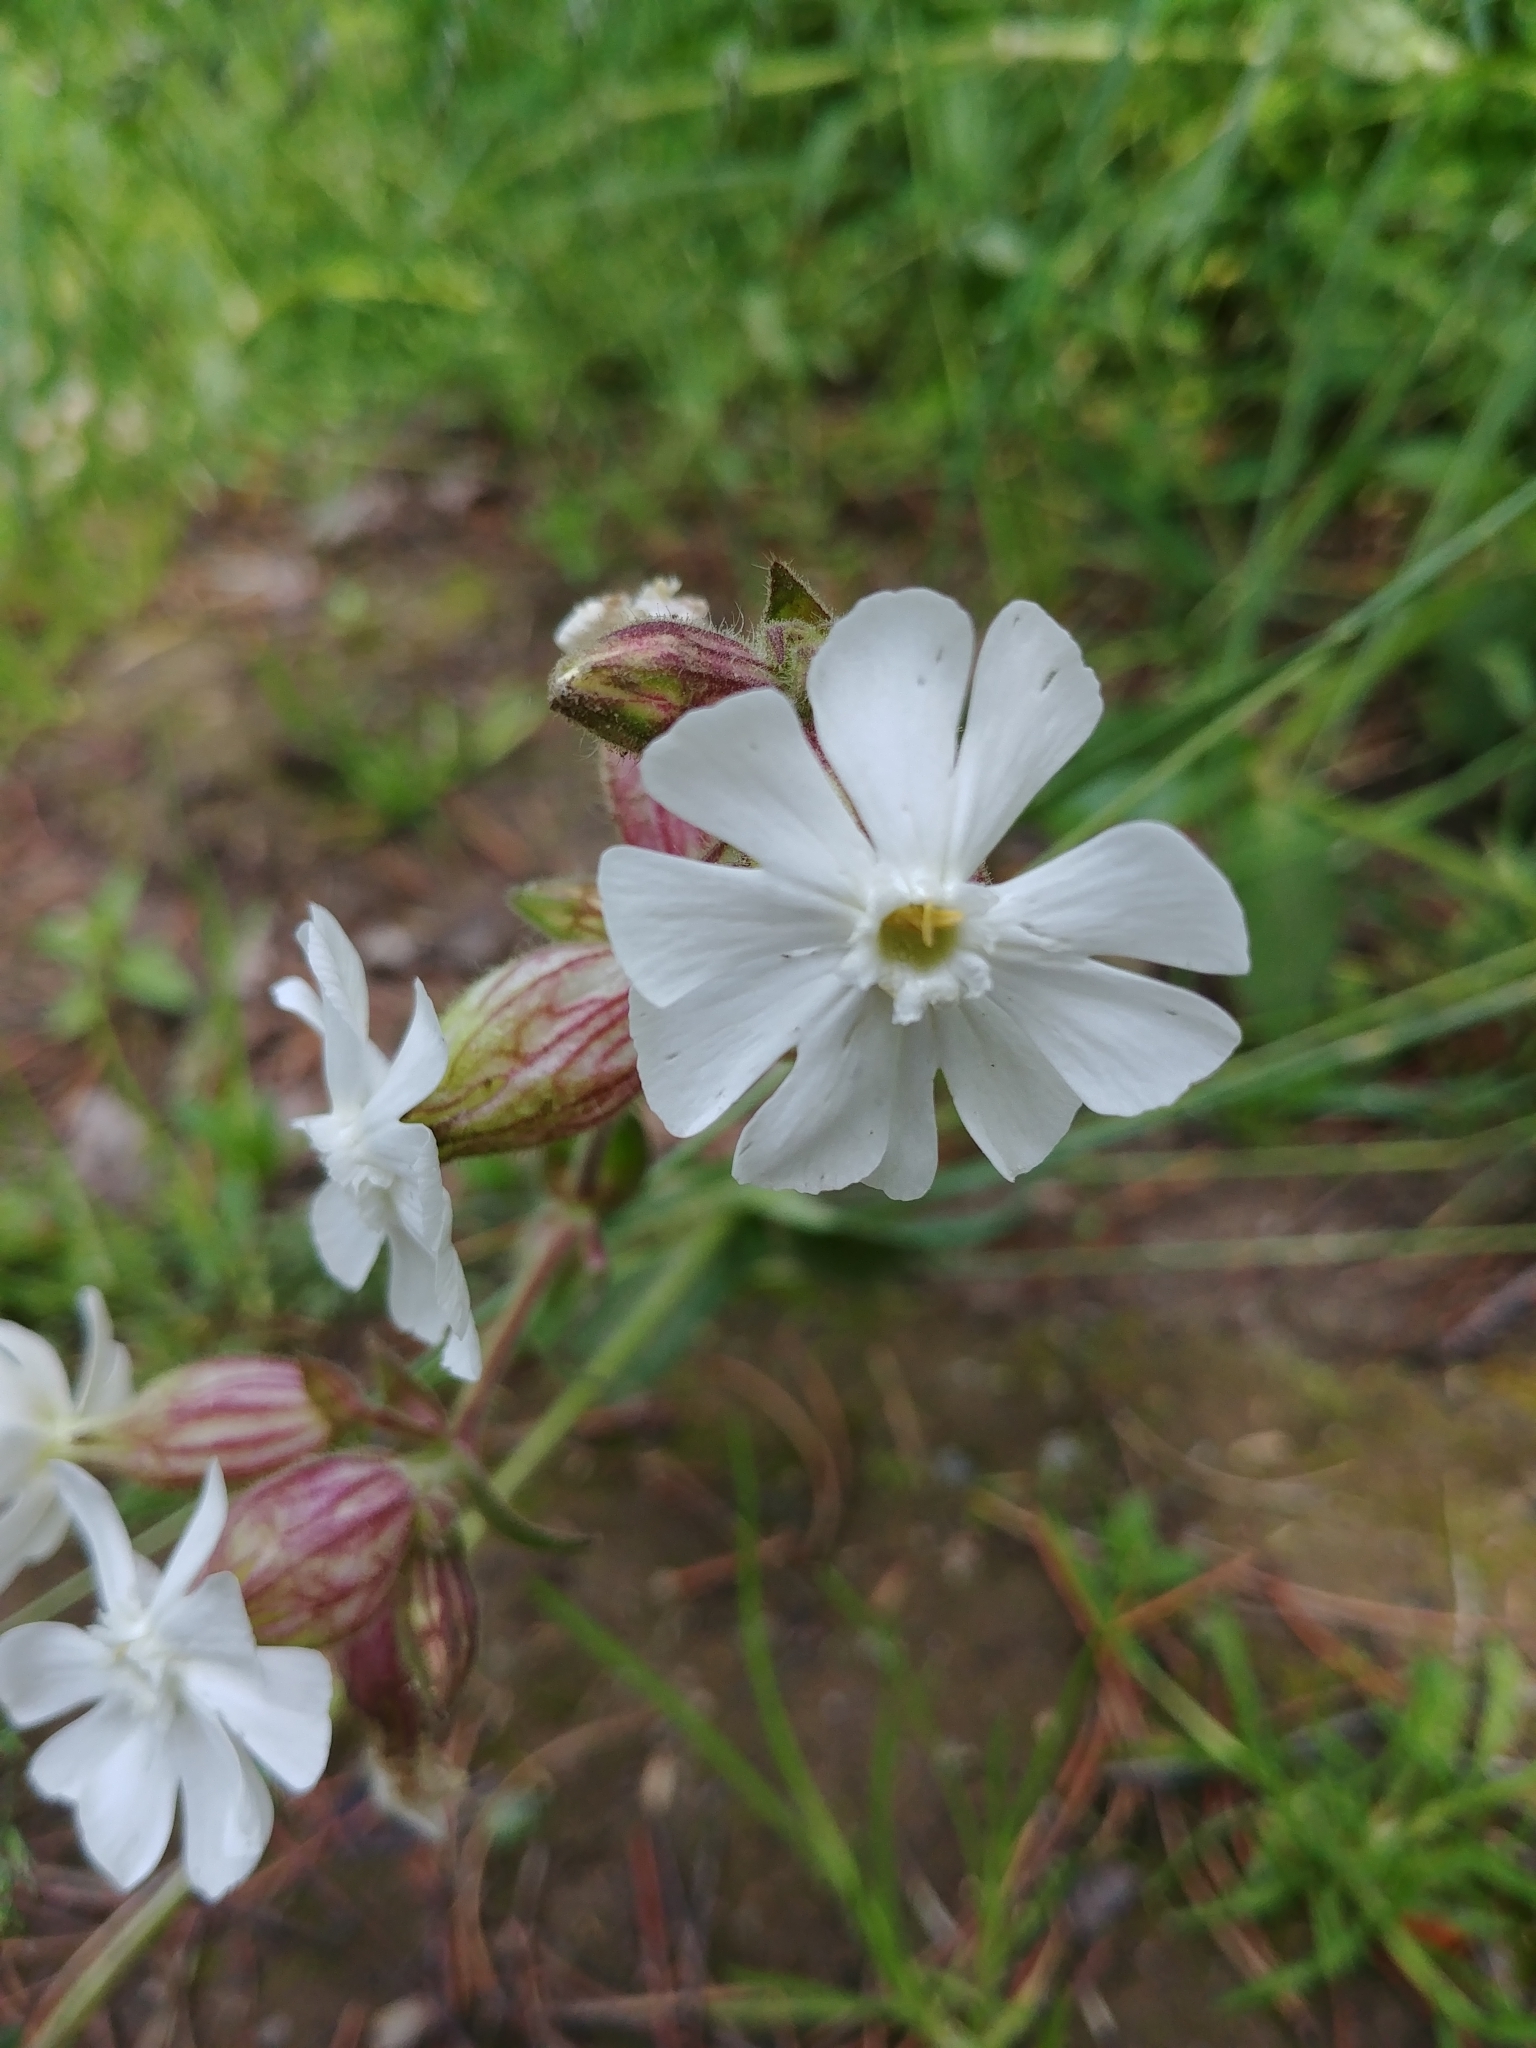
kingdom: Plantae
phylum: Tracheophyta
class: Magnoliopsida
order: Caryophyllales
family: Caryophyllaceae
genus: Silene
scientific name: Silene latifolia
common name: White campion
